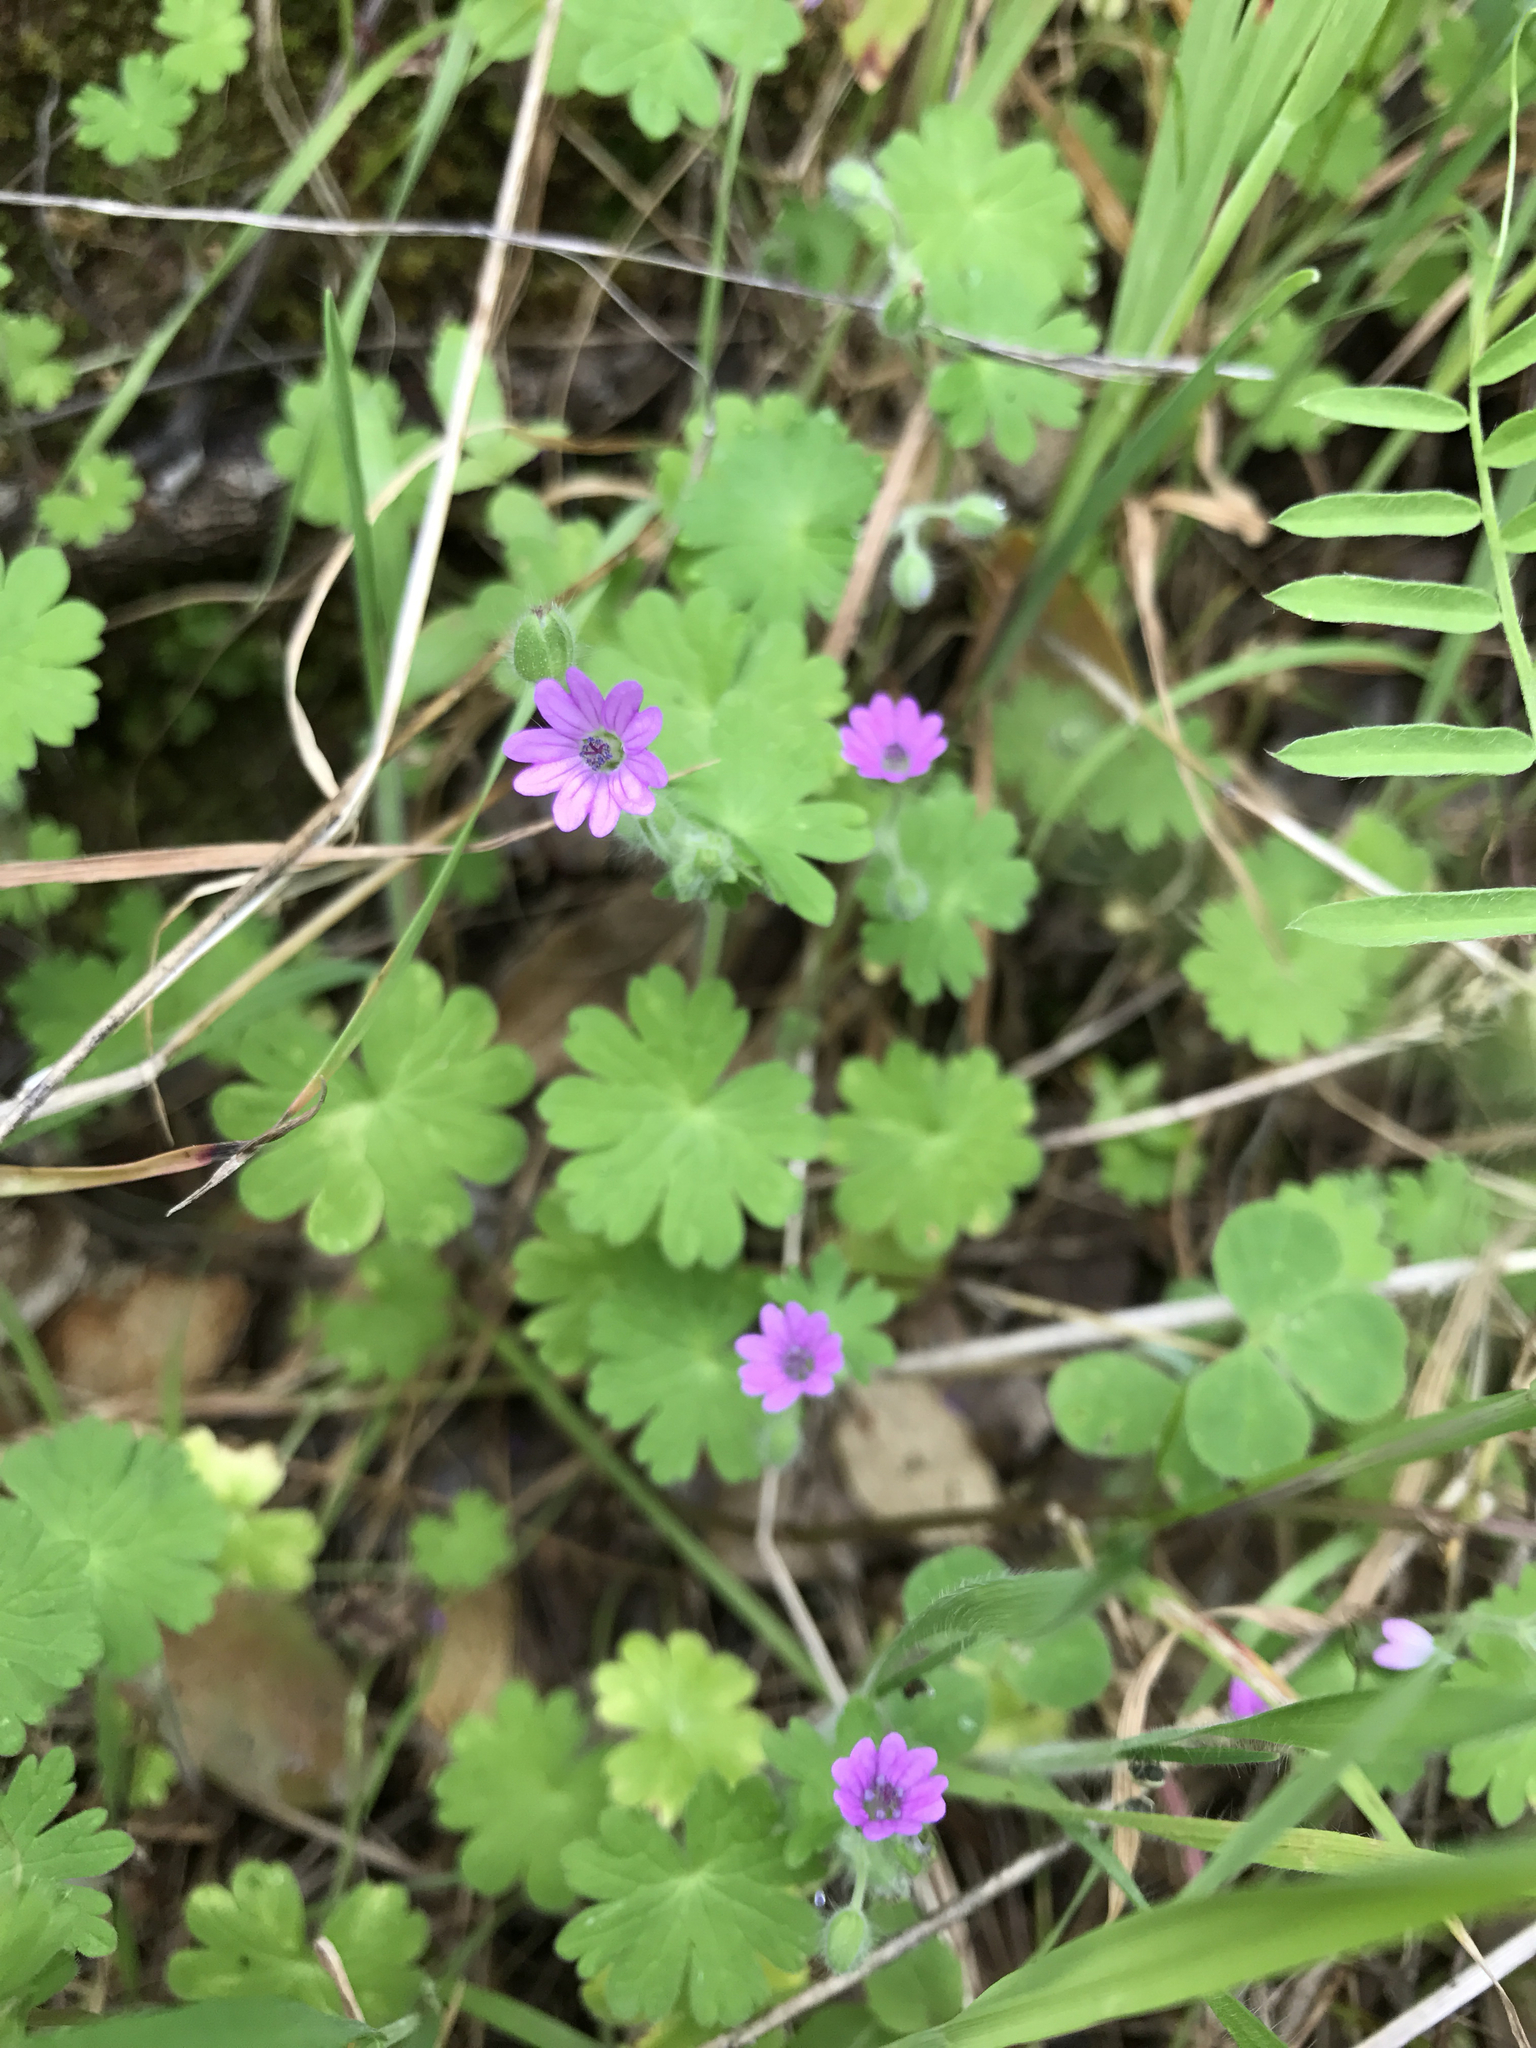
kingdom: Plantae
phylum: Tracheophyta
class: Magnoliopsida
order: Geraniales
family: Geraniaceae
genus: Geranium
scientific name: Geranium molle
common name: Dove's-foot crane's-bill
